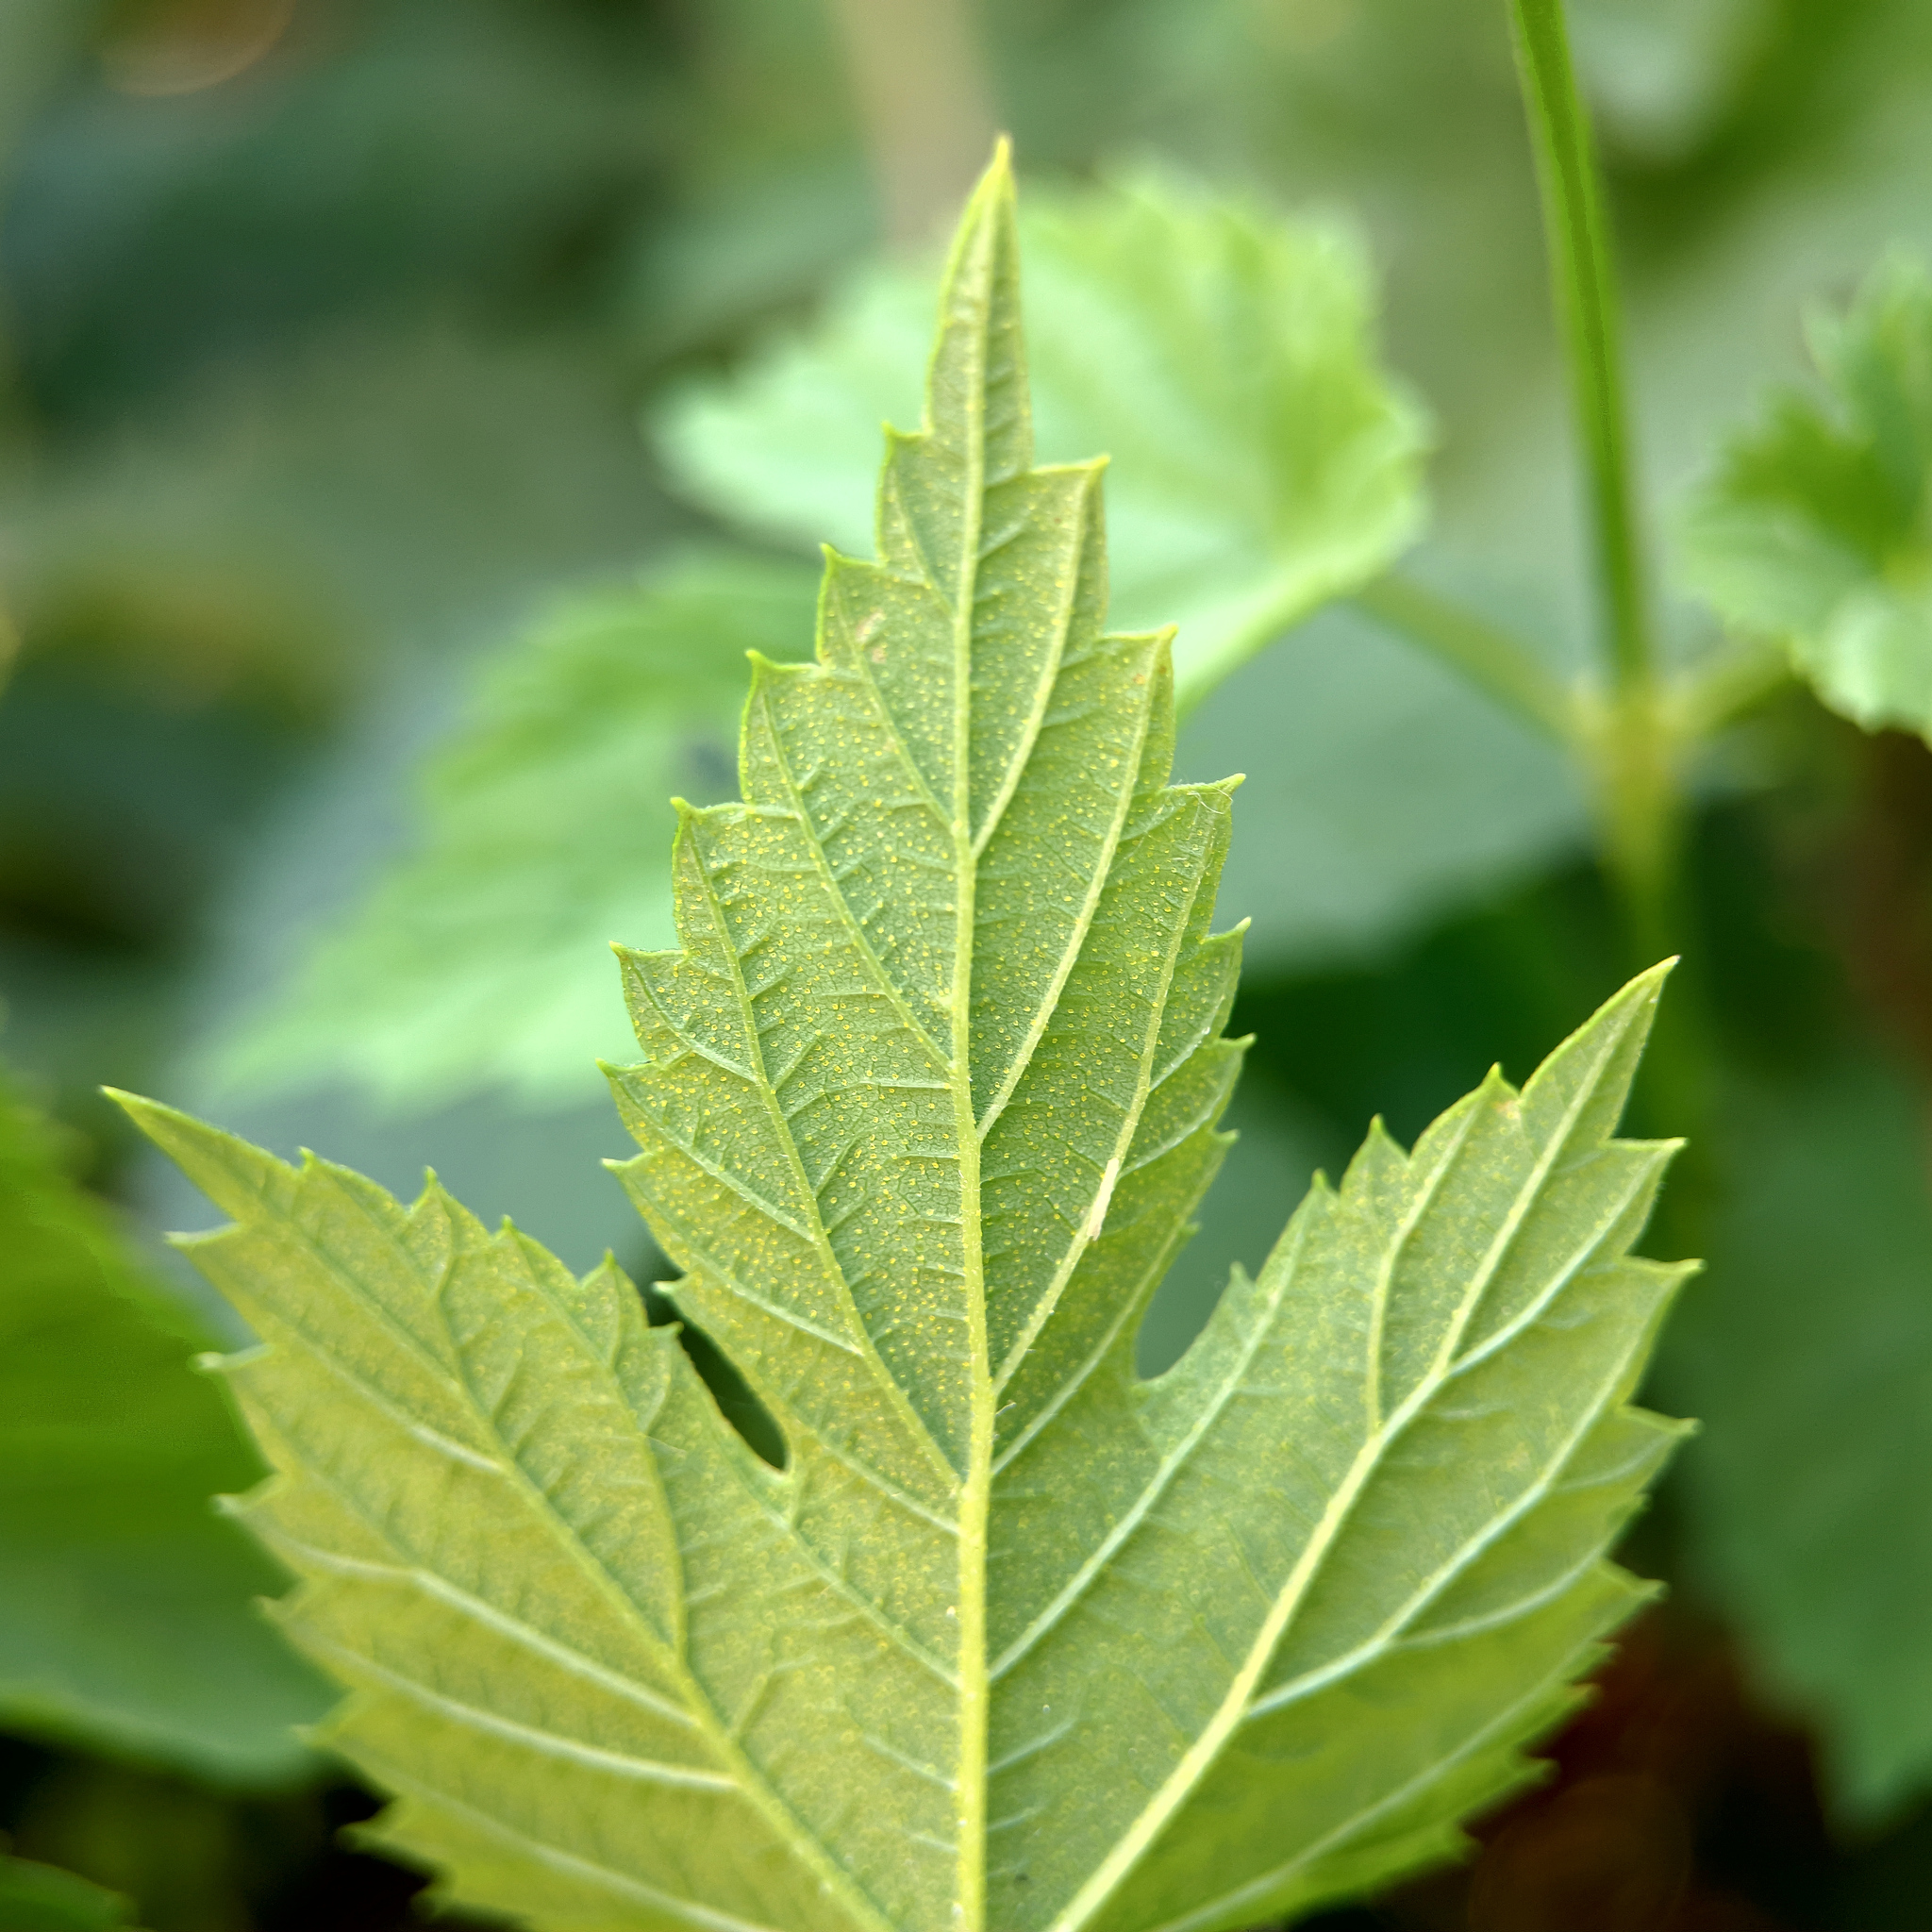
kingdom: Plantae
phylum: Tracheophyta
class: Magnoliopsida
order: Rosales
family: Cannabaceae
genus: Humulus
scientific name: Humulus lupulus
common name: Hop
